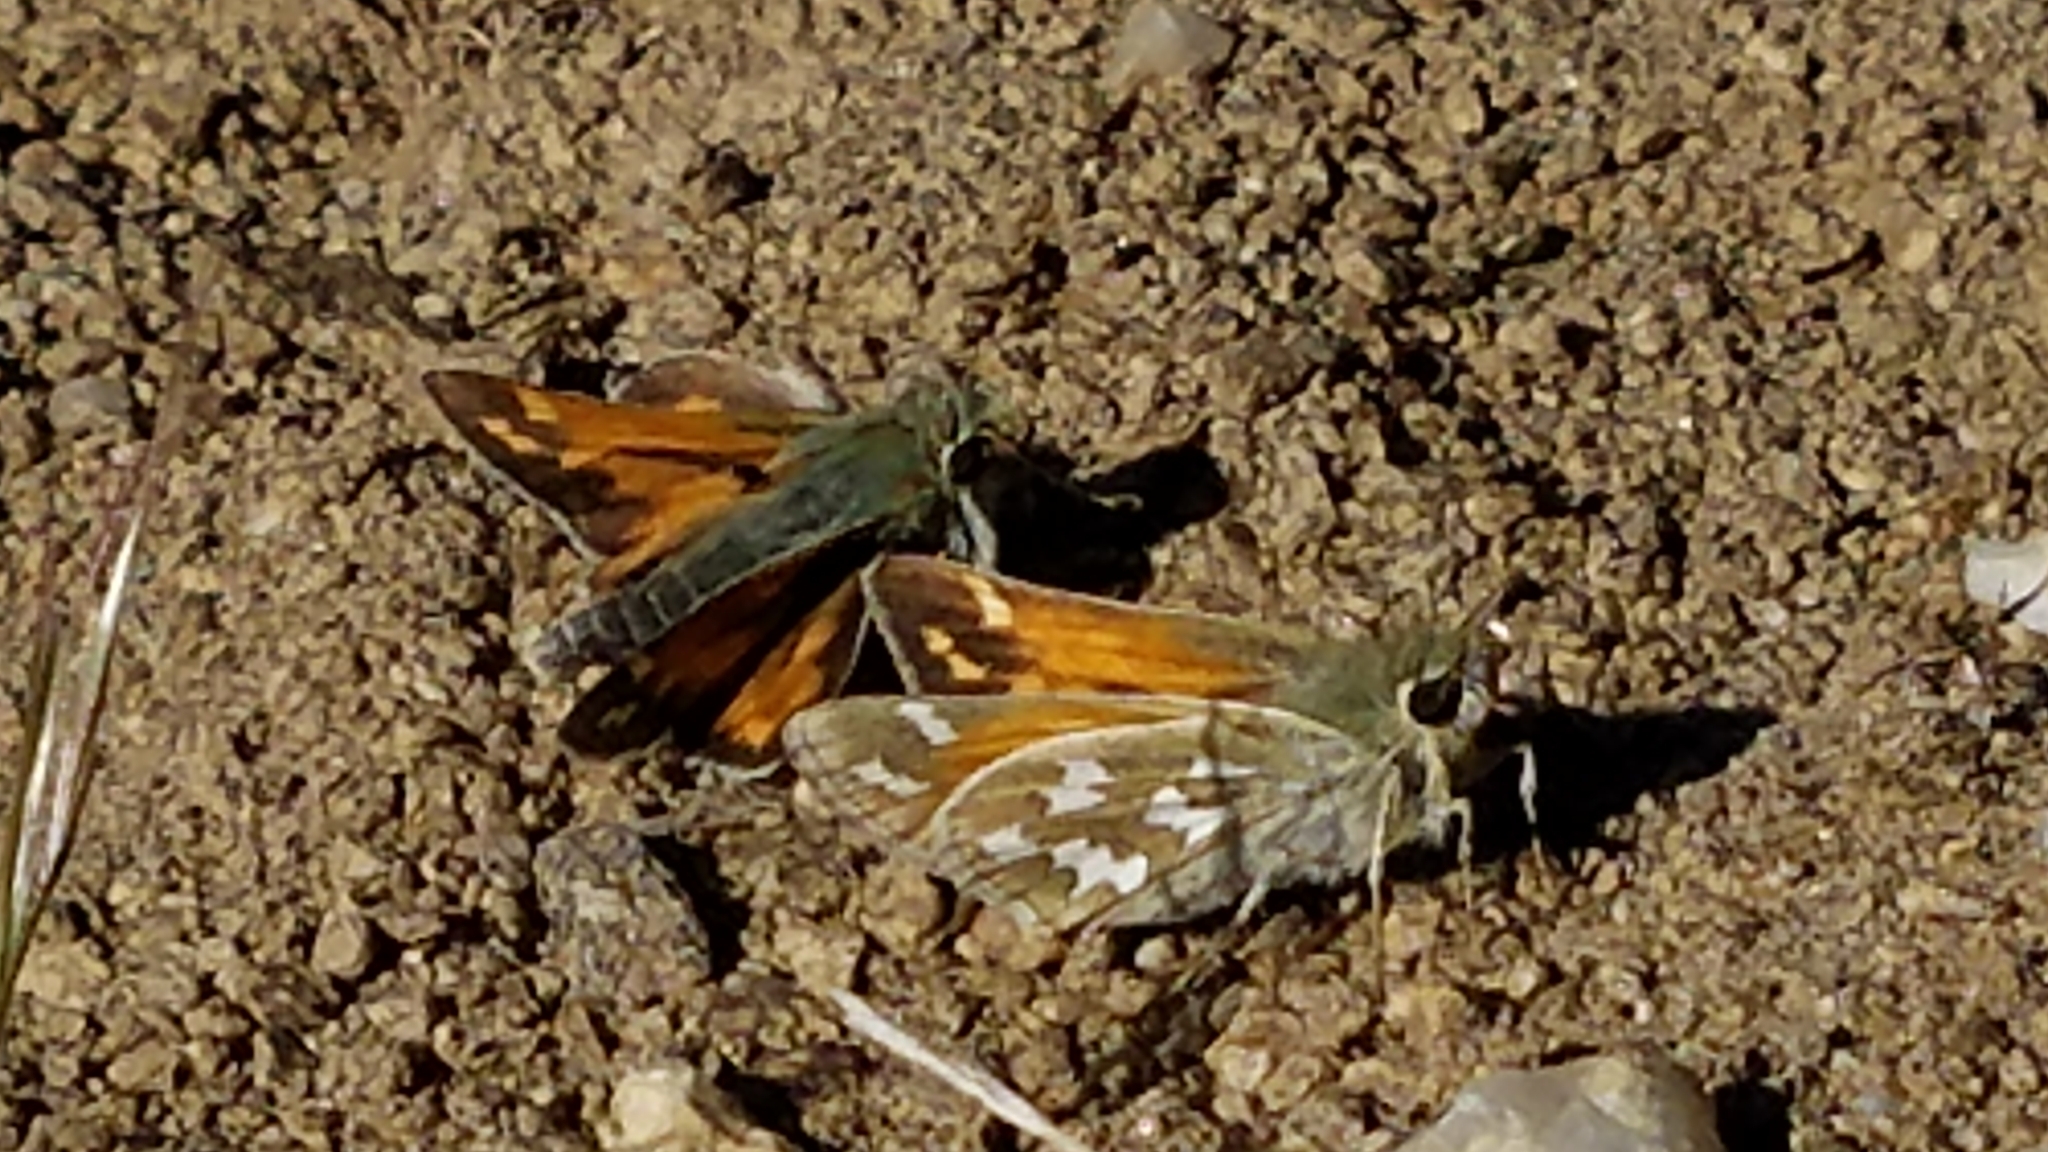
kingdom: Animalia
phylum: Arthropoda
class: Insecta
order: Lepidoptera
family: Hesperiidae
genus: Hesperia
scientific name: Hesperia juba
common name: Juba skipper
